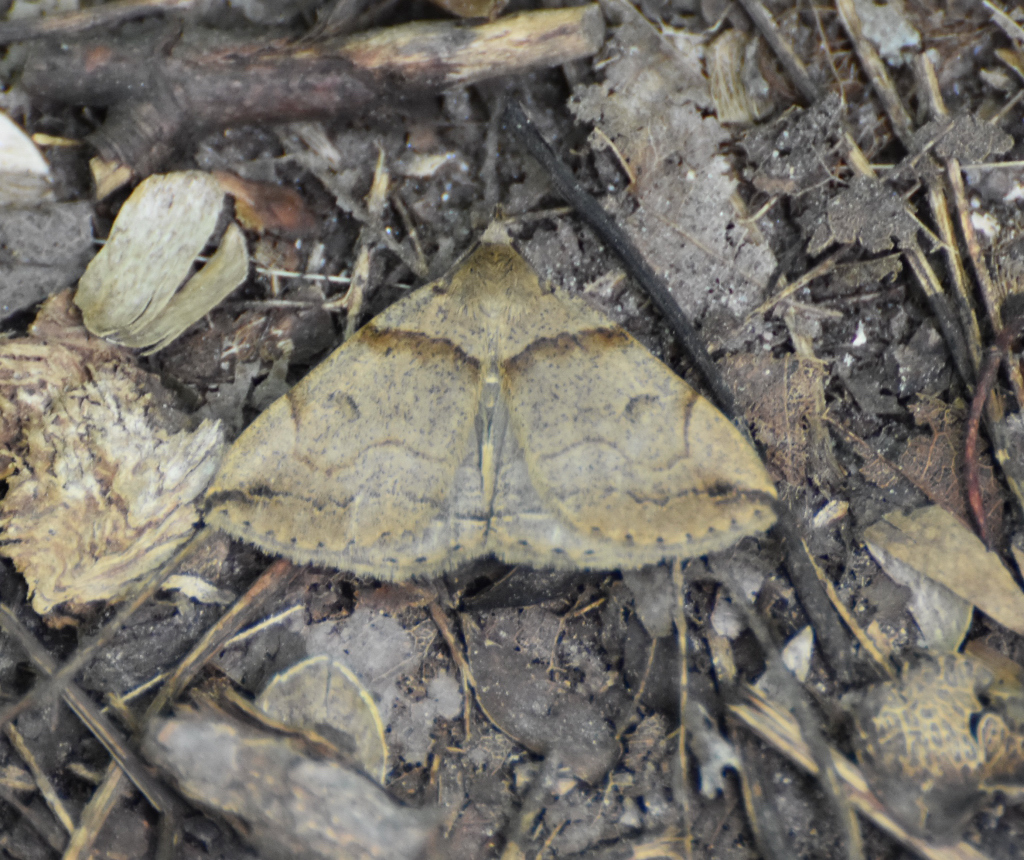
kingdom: Animalia
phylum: Arthropoda
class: Insecta
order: Lepidoptera
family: Erebidae
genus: Zanclognatha
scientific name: Zanclognatha laevigata
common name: Variable fan-foot
